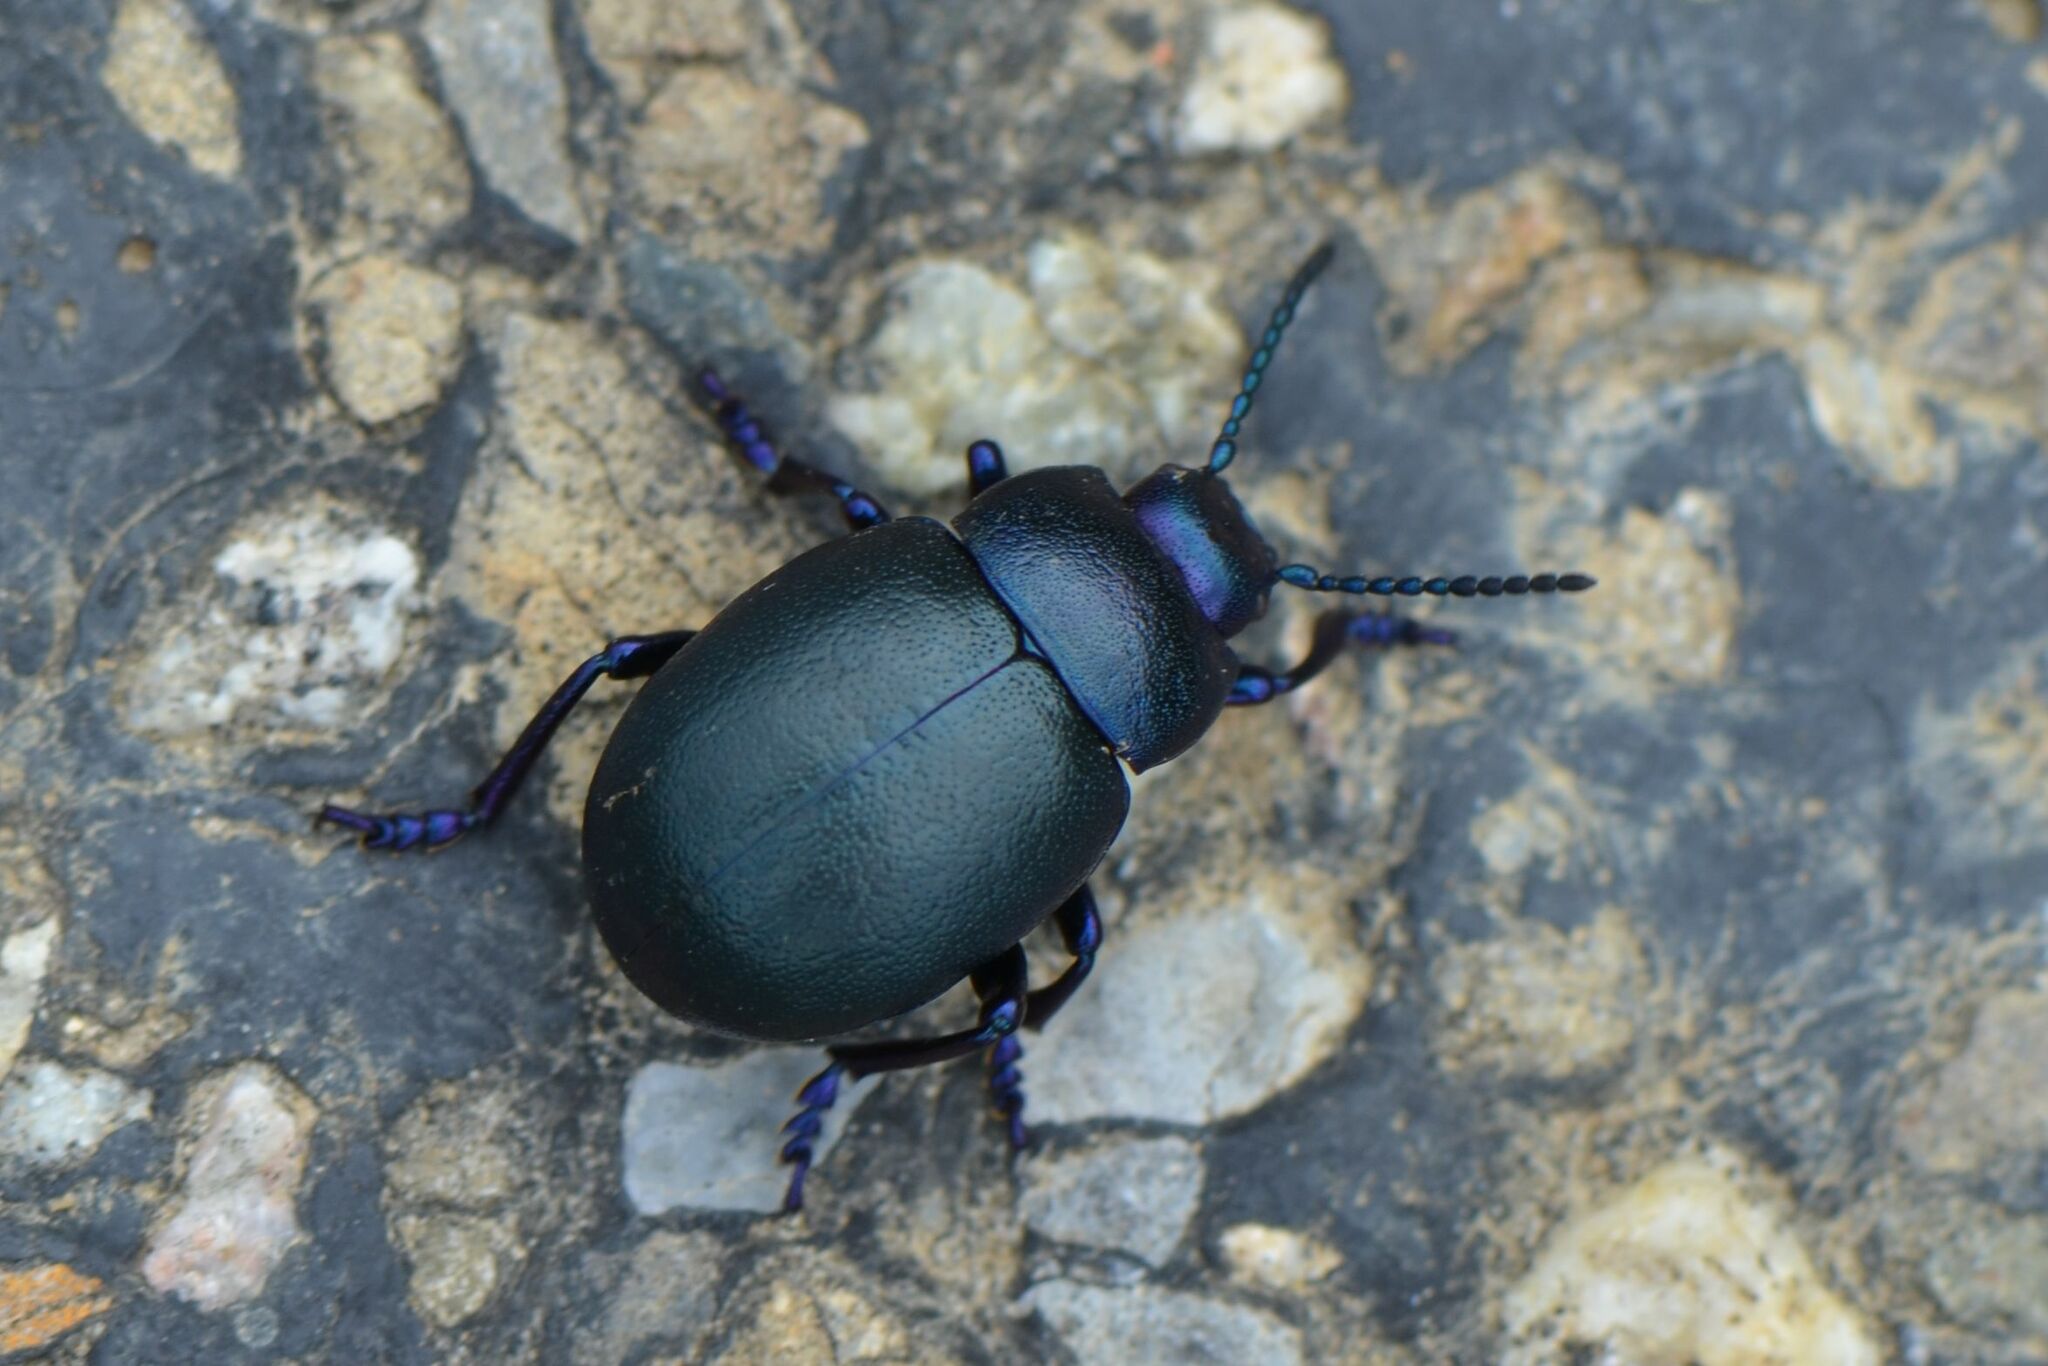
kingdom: Animalia
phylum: Arthropoda
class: Insecta
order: Coleoptera
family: Chrysomelidae
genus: Timarcha
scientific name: Timarcha goettingensis
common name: Small bloody-nosed beetle
